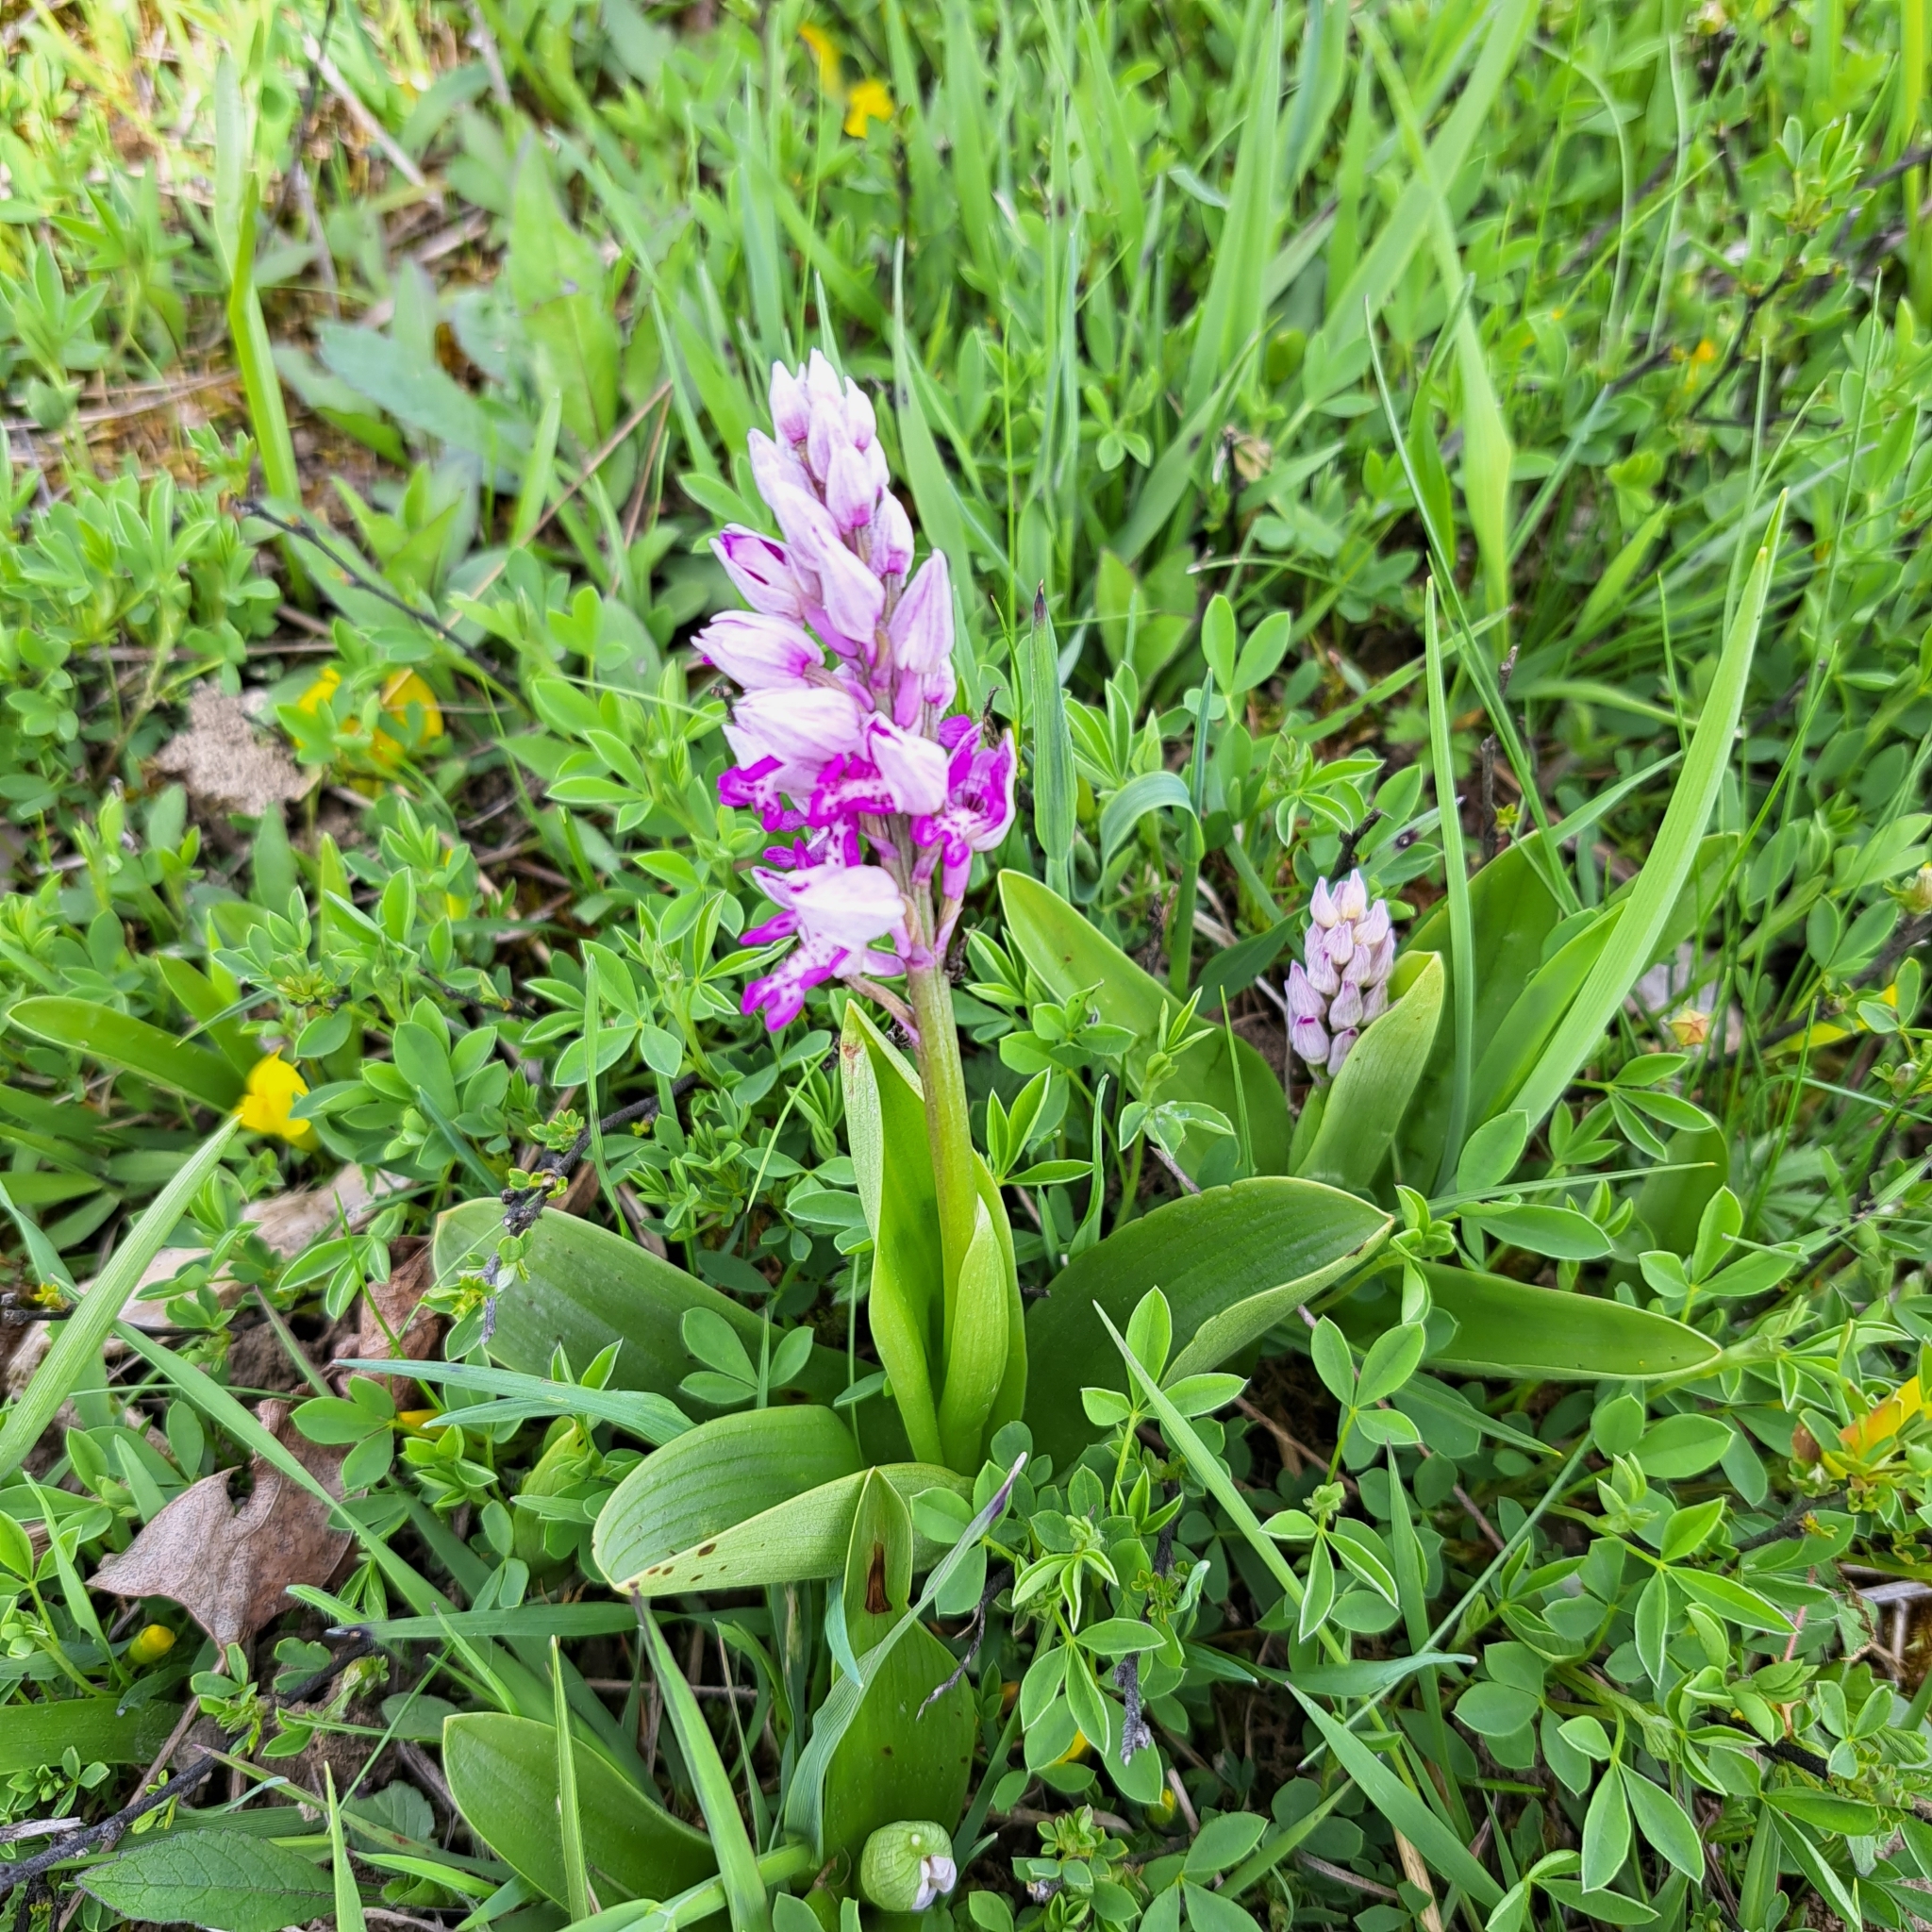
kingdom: Plantae
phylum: Tracheophyta
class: Liliopsida
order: Asparagales
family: Orchidaceae
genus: Orchis
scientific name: Orchis militaris
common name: Military orchid
